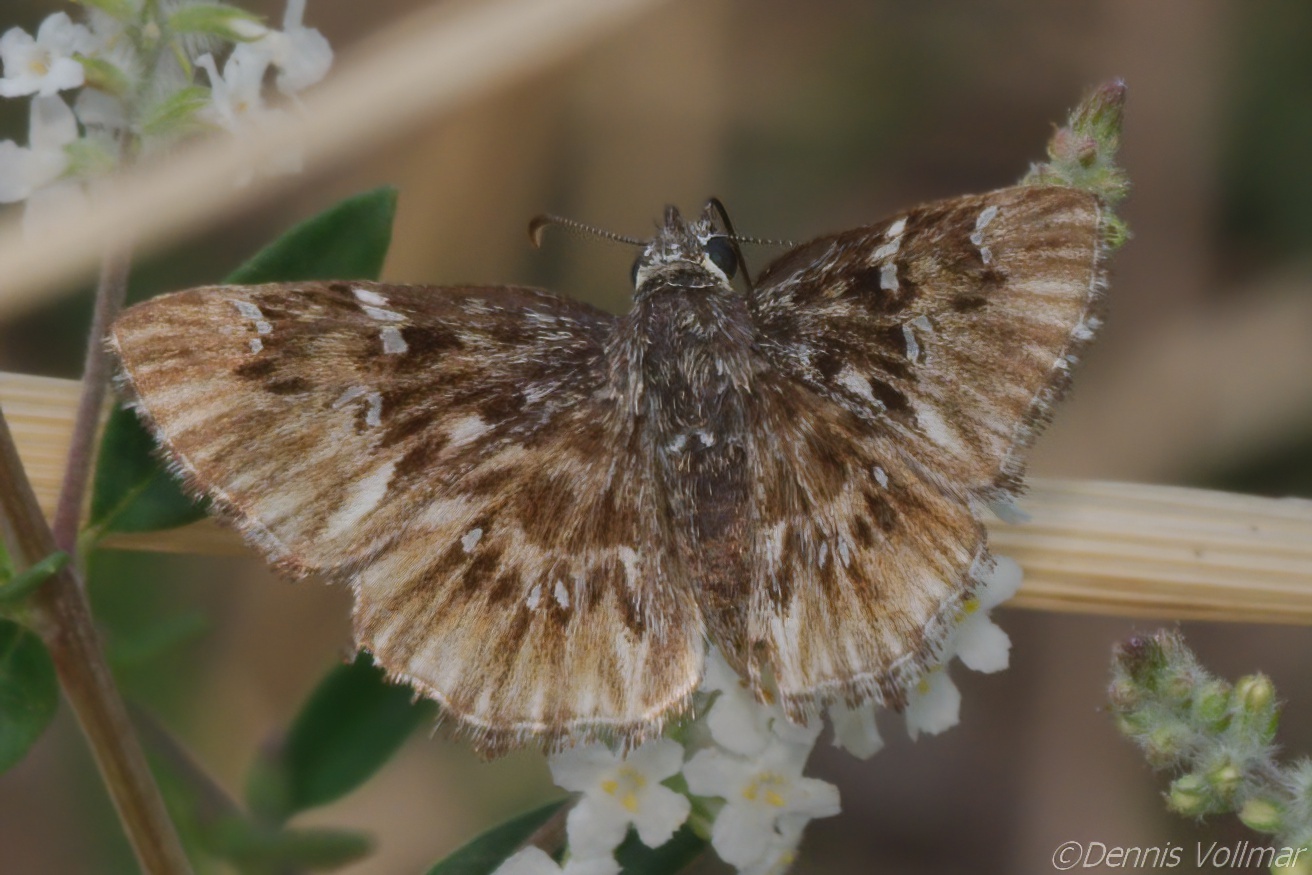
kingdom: Animalia
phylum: Arthropoda
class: Insecta
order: Lepidoptera
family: Hesperiidae
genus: Celotes
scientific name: Celotes nessus
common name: Common streaky-skipper
